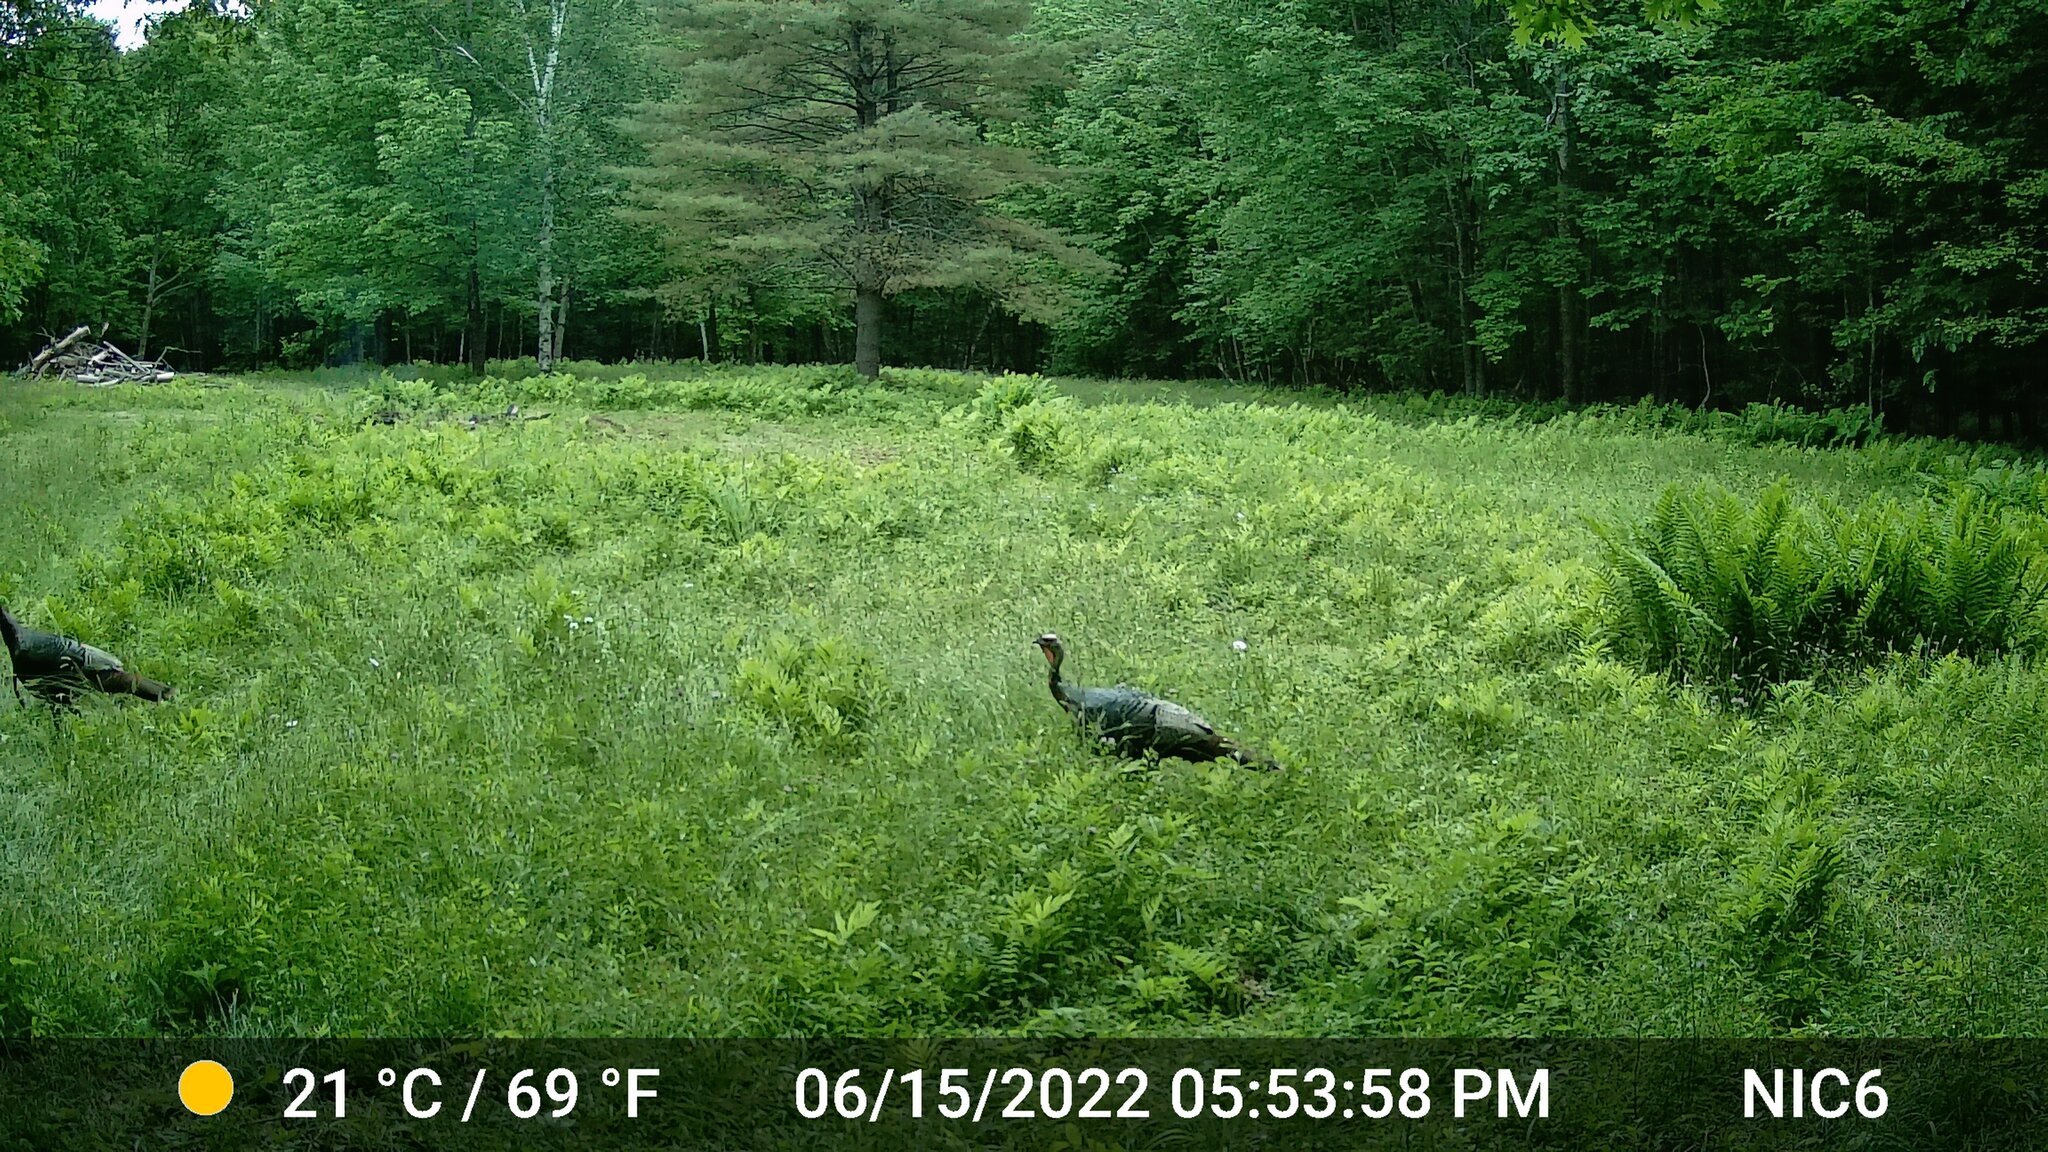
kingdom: Animalia
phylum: Chordata
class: Aves
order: Galliformes
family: Phasianidae
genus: Meleagris
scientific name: Meleagris gallopavo
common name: Wild turkey
